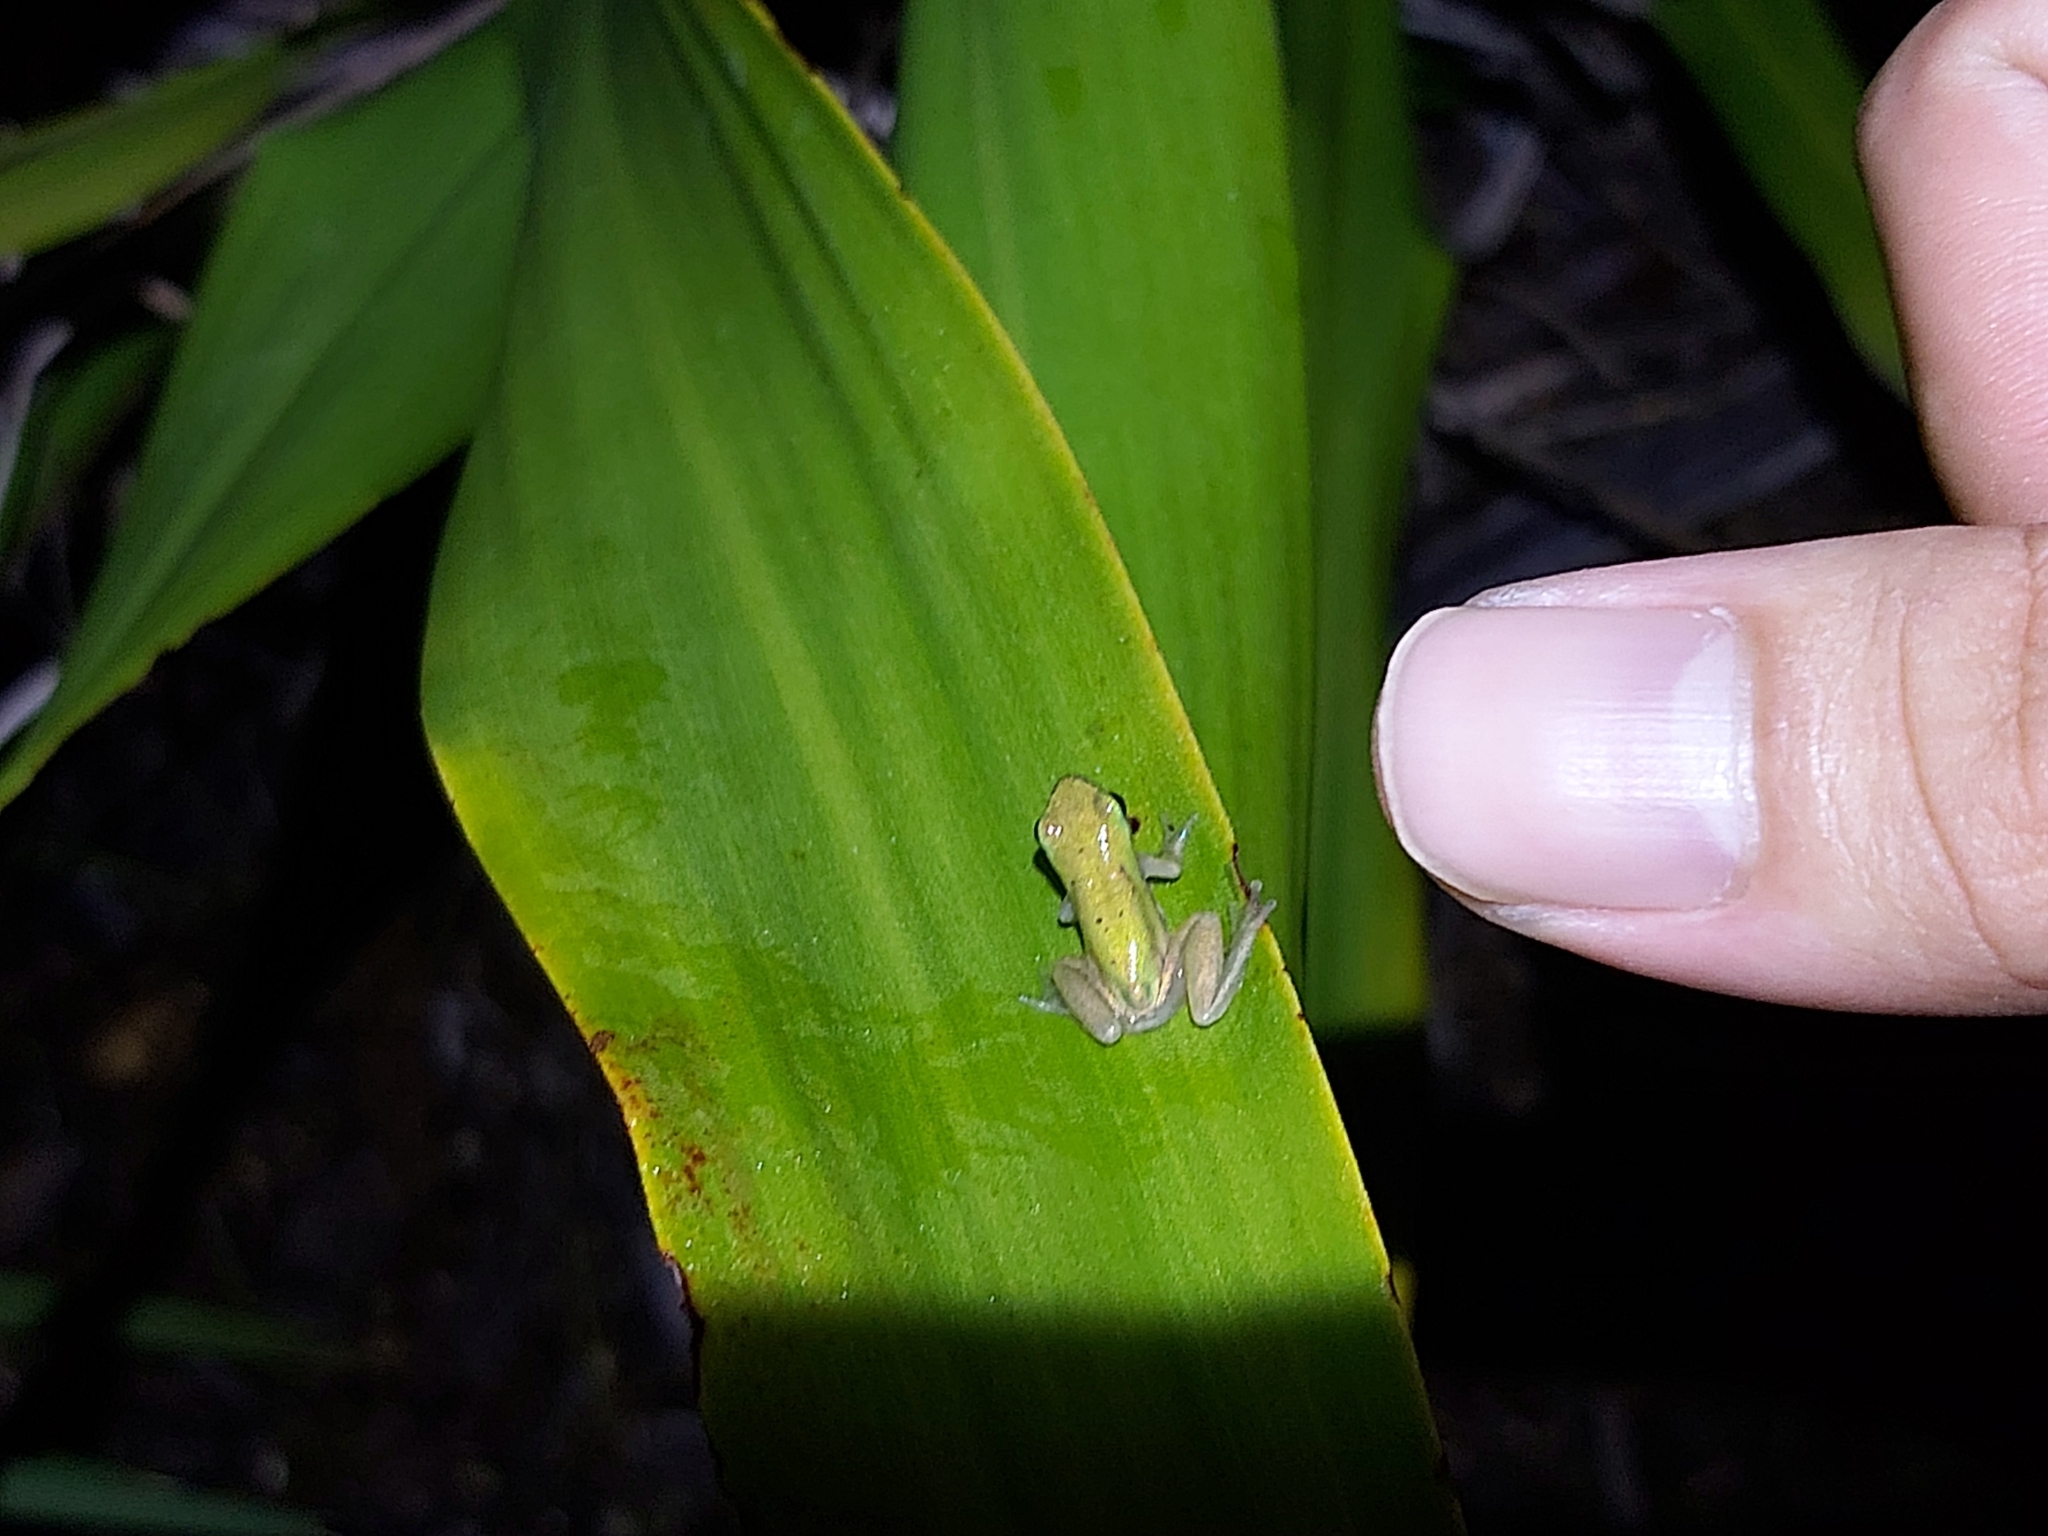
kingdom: Animalia
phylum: Chordata
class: Amphibia
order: Anura
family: Pelodryadidae
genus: Litoria
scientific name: Litoria fallax
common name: Eastern dwarf treefrog
